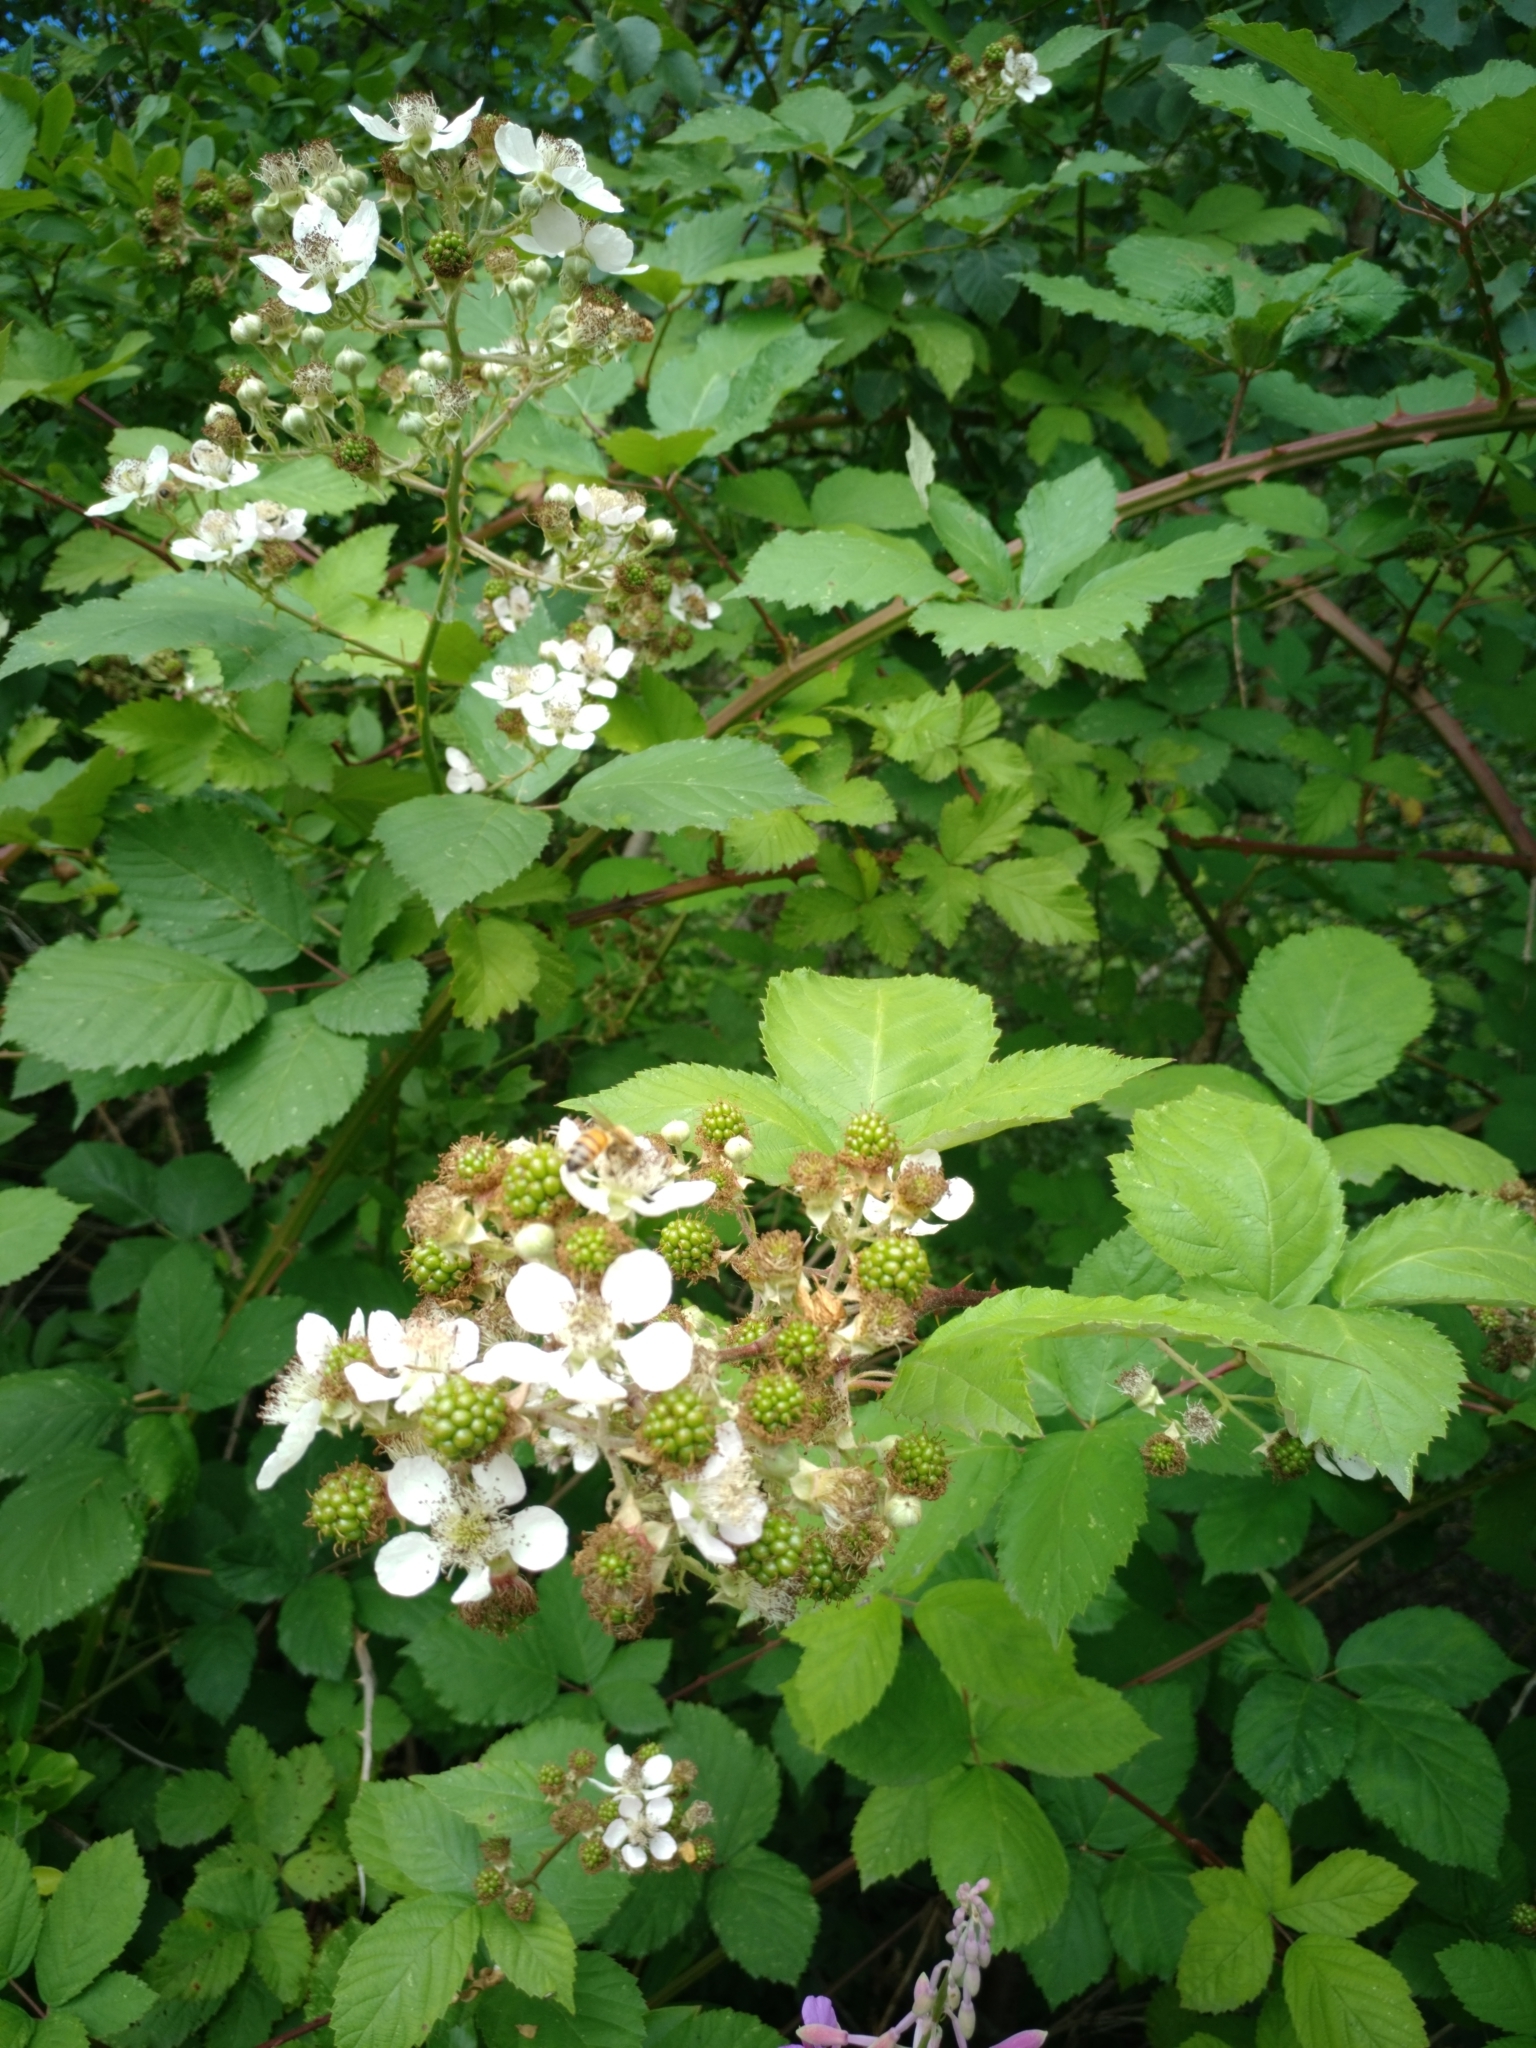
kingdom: Plantae
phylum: Tracheophyta
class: Magnoliopsida
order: Rosales
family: Rosaceae
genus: Rubus
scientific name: Rubus bifrons
